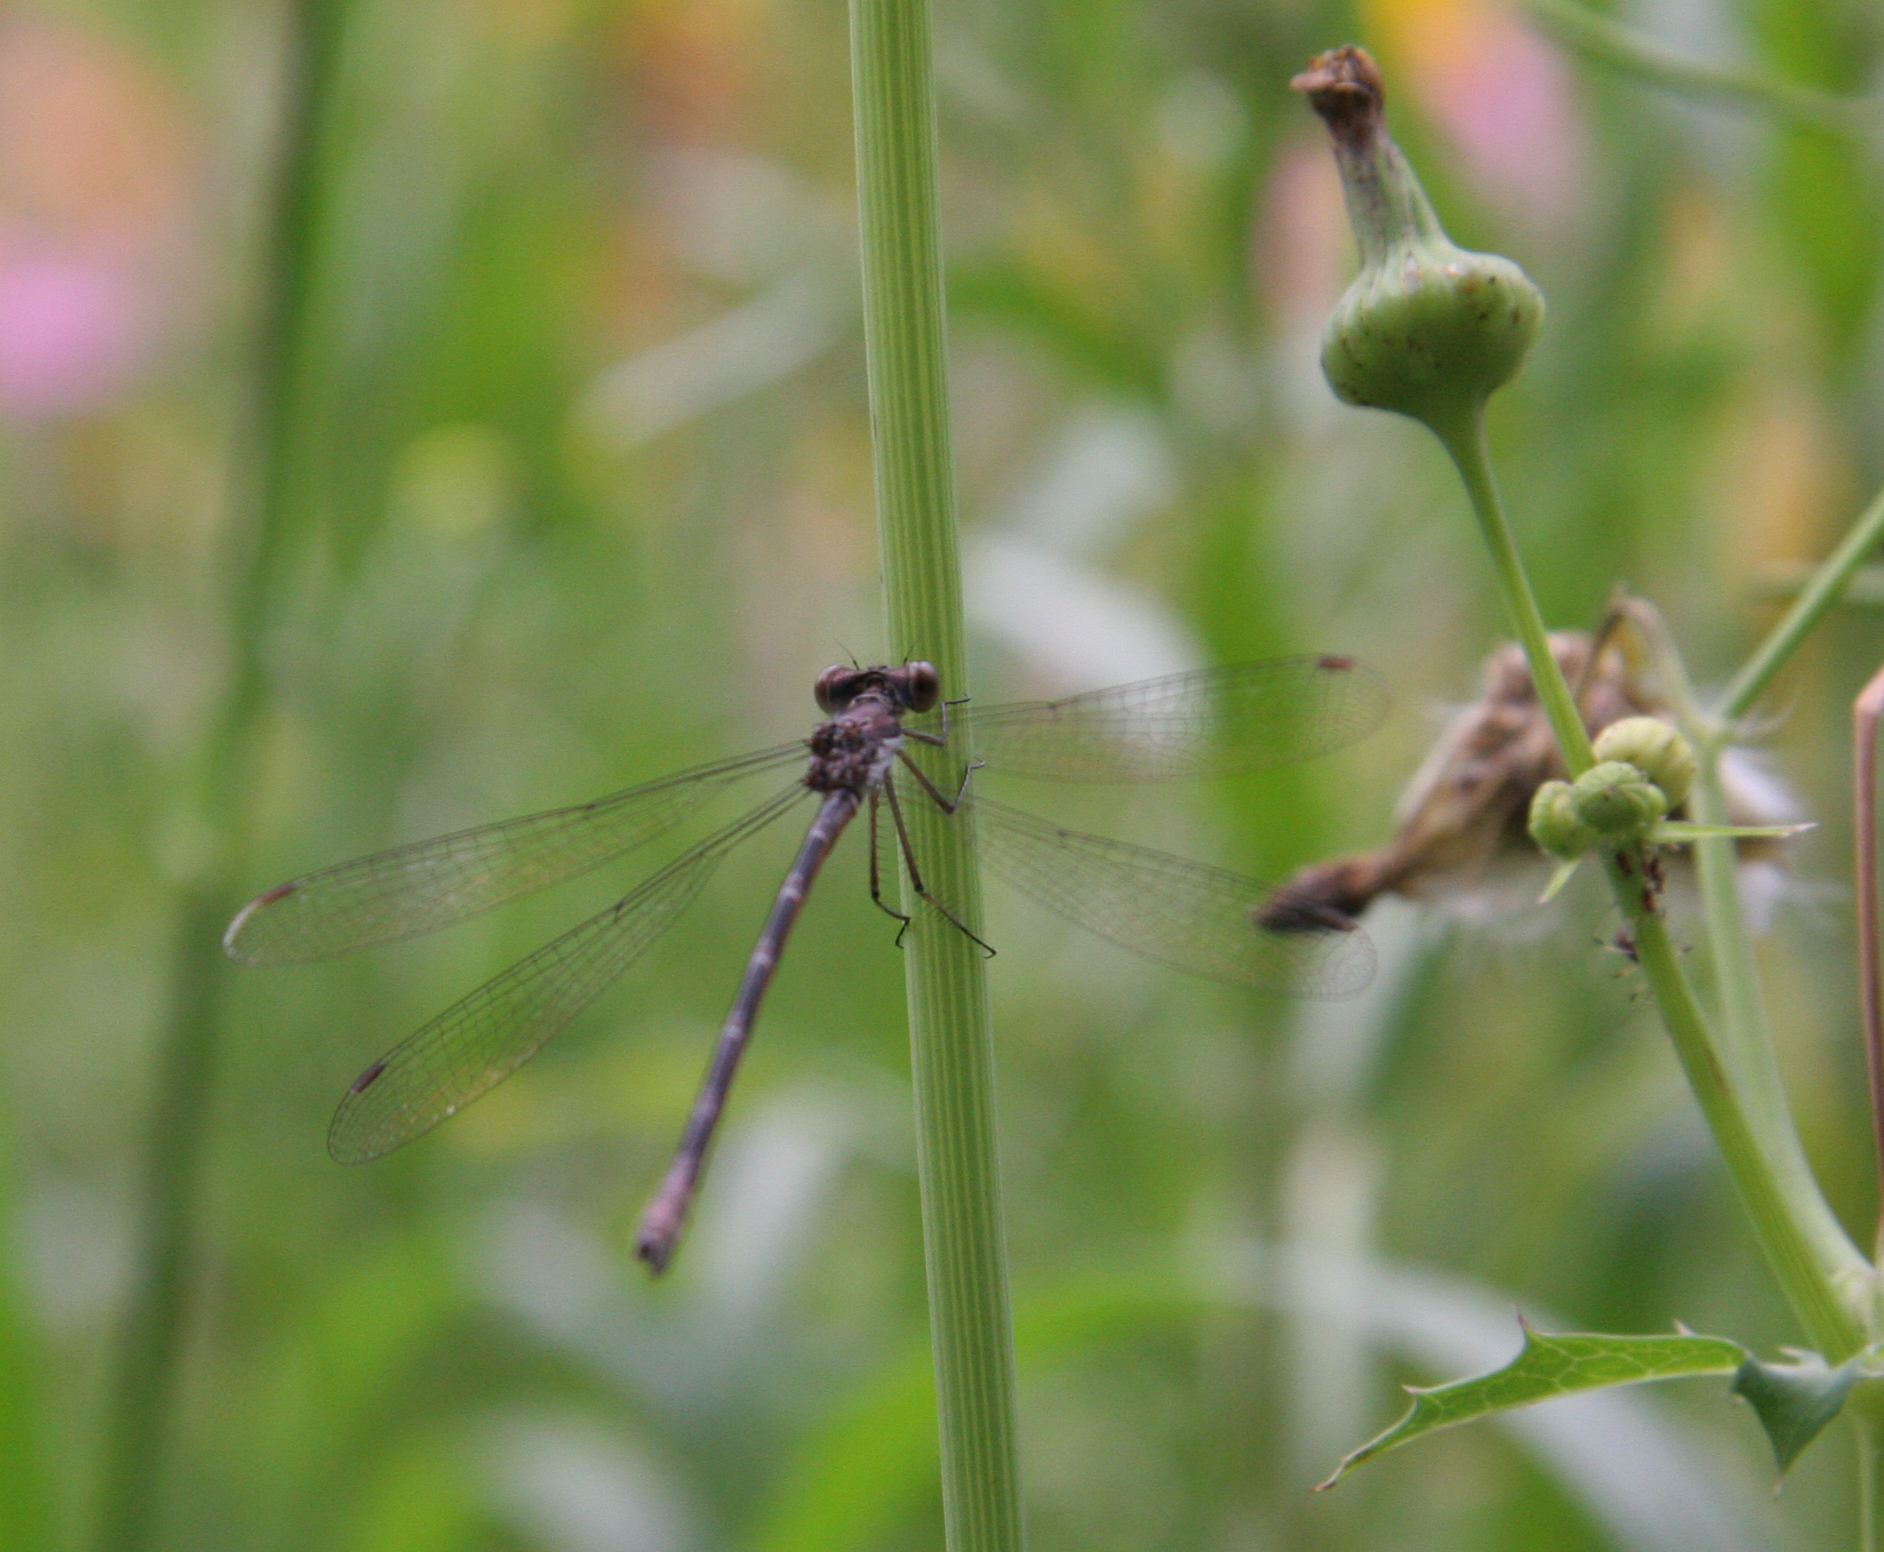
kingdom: Animalia
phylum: Arthropoda
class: Insecta
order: Odonata
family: Lestidae
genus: Lestes
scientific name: Lestes congener
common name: Spotted spreadwing
